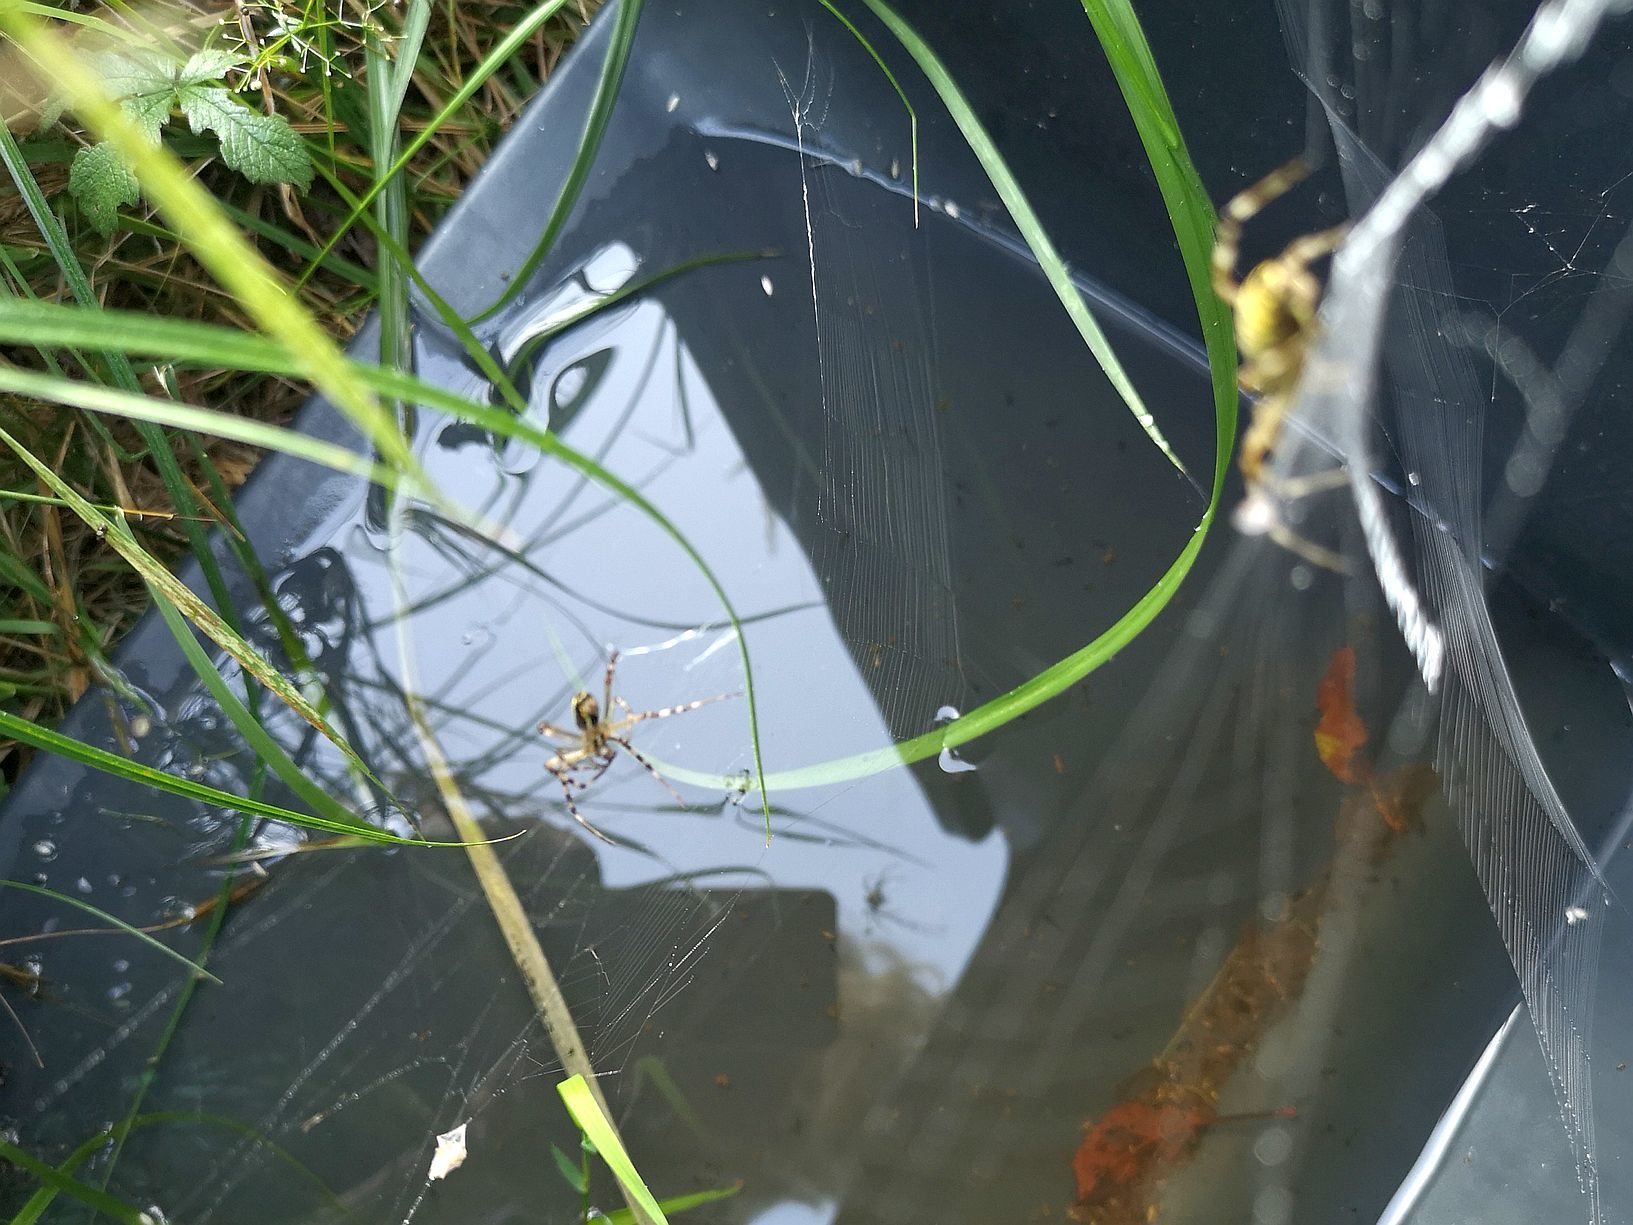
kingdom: Animalia
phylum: Arthropoda
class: Arachnida
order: Araneae
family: Araneidae
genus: Argiope
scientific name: Argiope bruennichi
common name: Wasp spider
